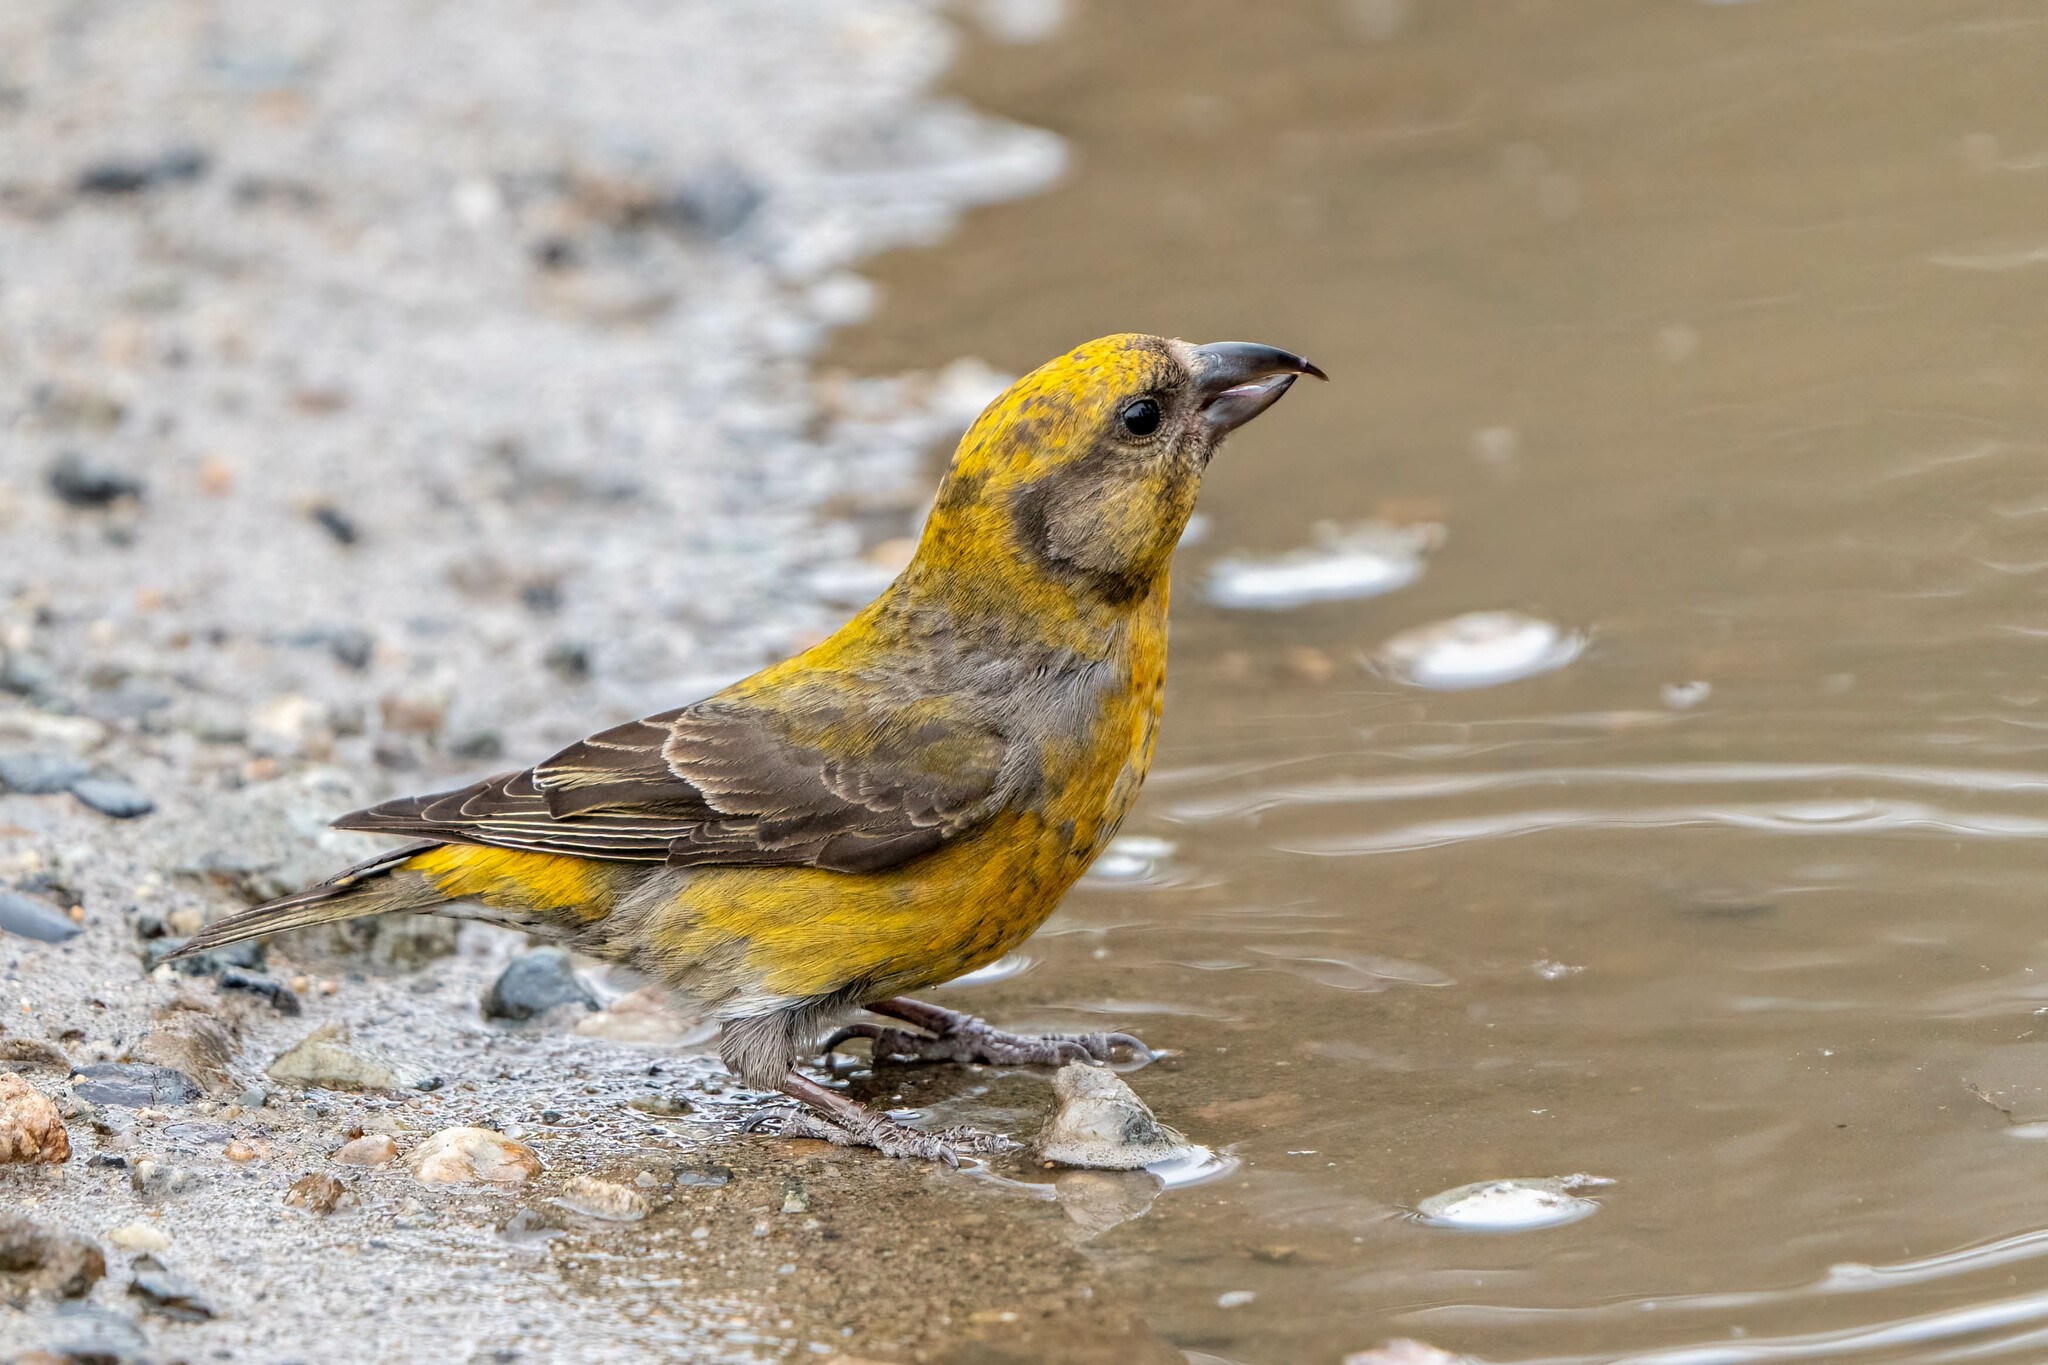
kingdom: Animalia
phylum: Chordata
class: Aves
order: Passeriformes
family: Fringillidae
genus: Loxia
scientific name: Loxia curvirostra
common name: Red crossbill
